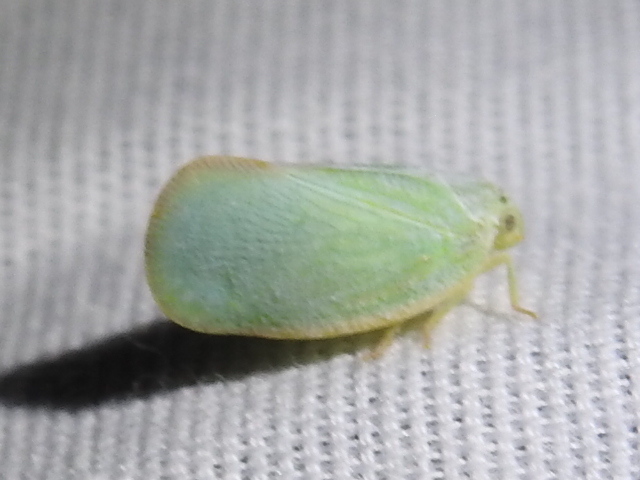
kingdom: Animalia
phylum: Arthropoda
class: Insecta
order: Hemiptera
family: Flatidae
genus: Ormenoides
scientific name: Ormenoides venusta
